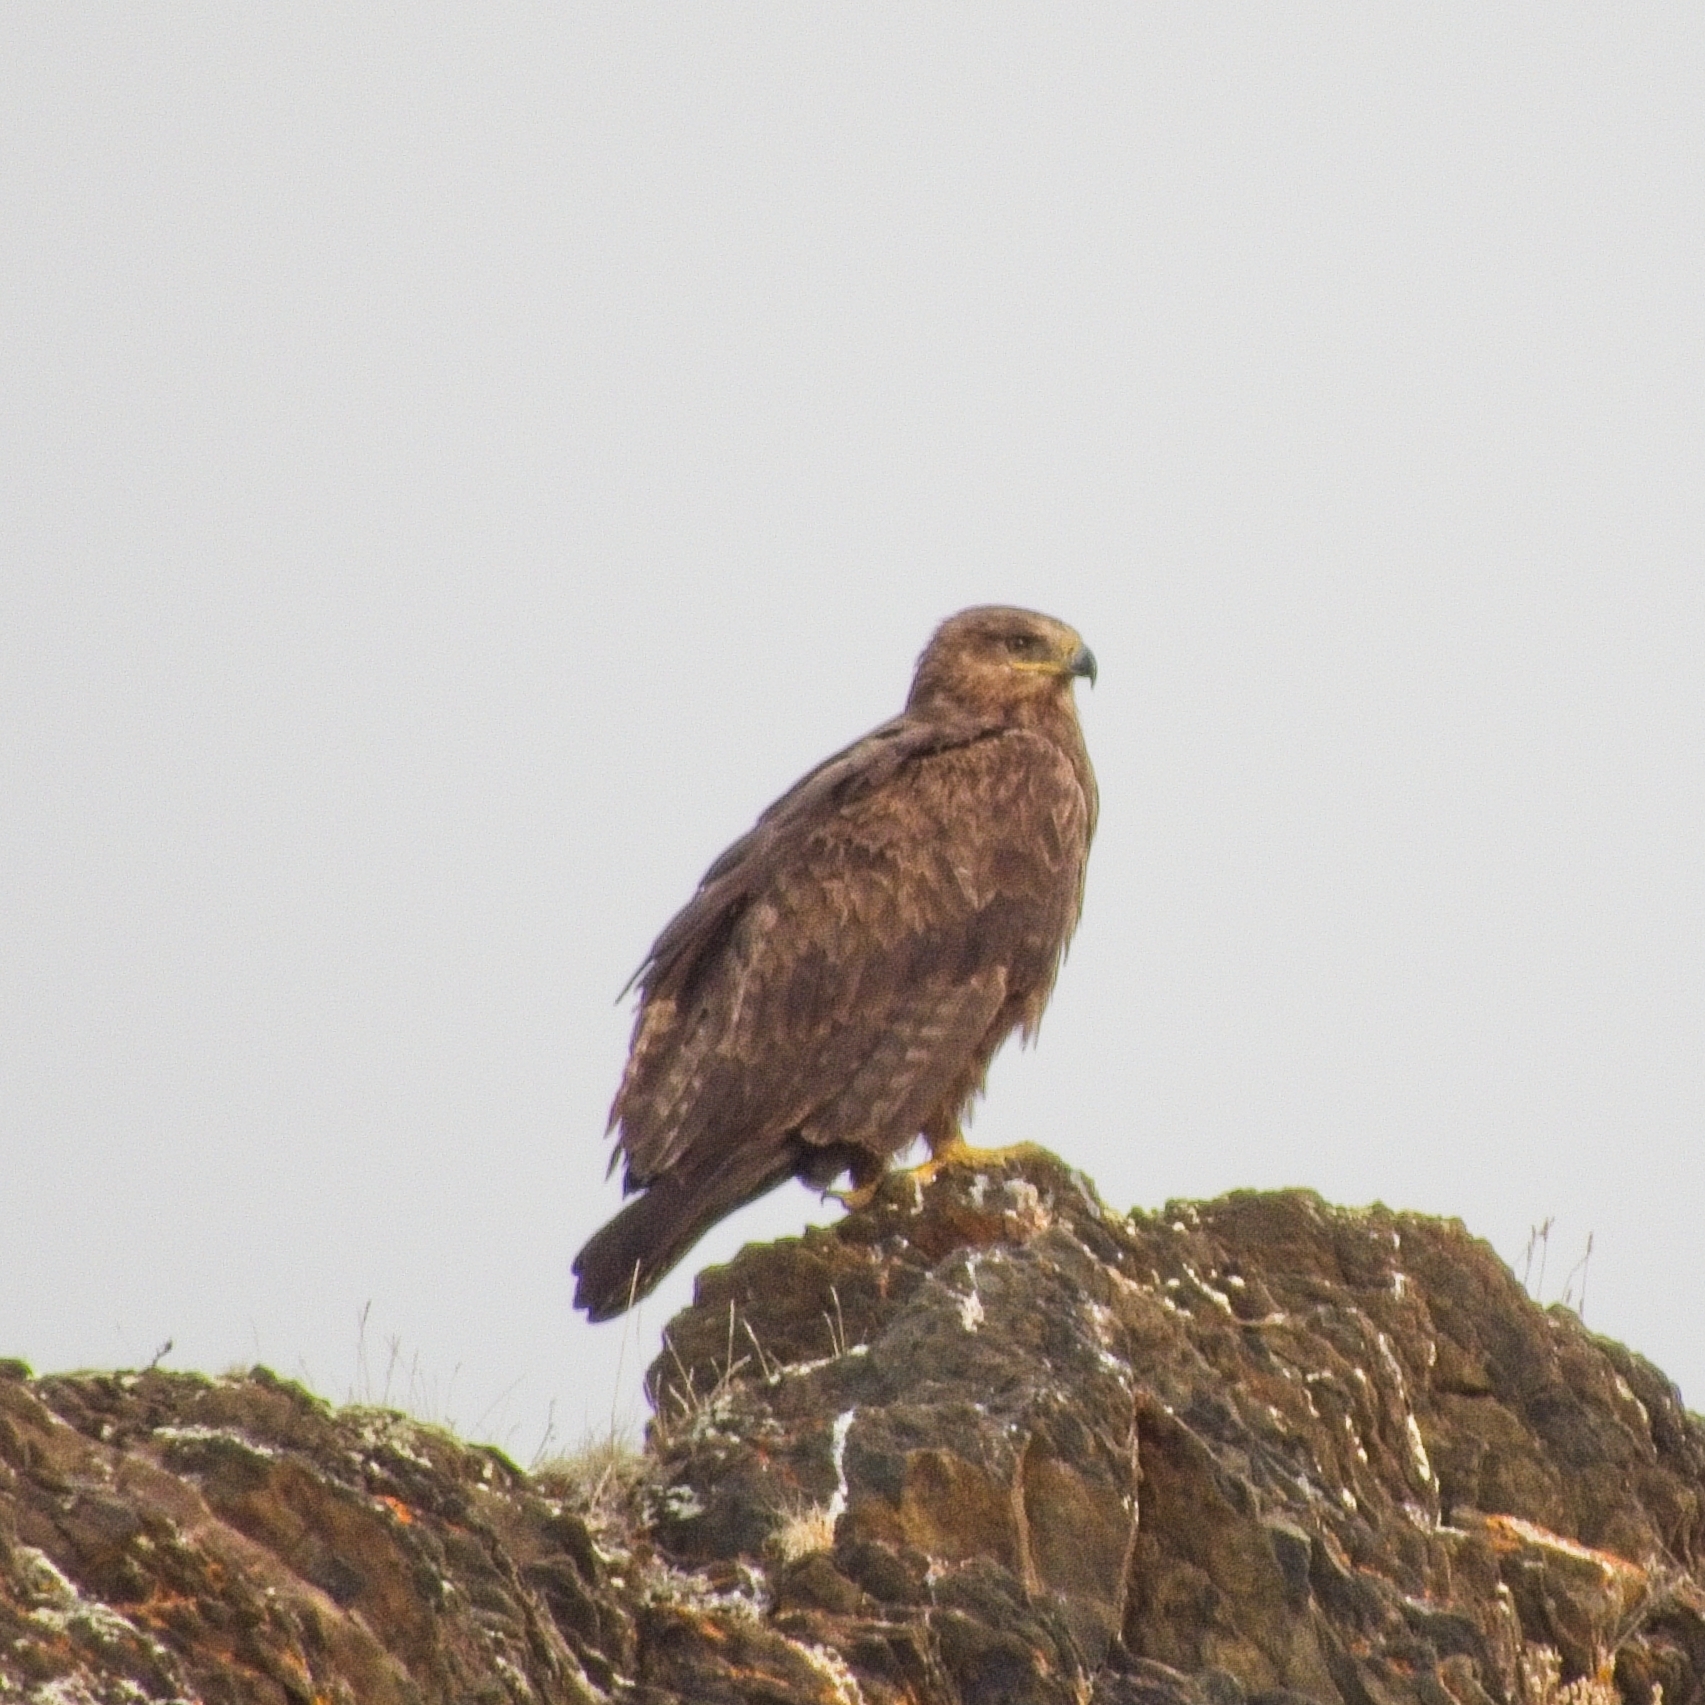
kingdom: Animalia
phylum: Chordata
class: Aves
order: Accipitriformes
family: Accipitridae
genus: Aquila
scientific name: Aquila nipalensis
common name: Steppe eagle
